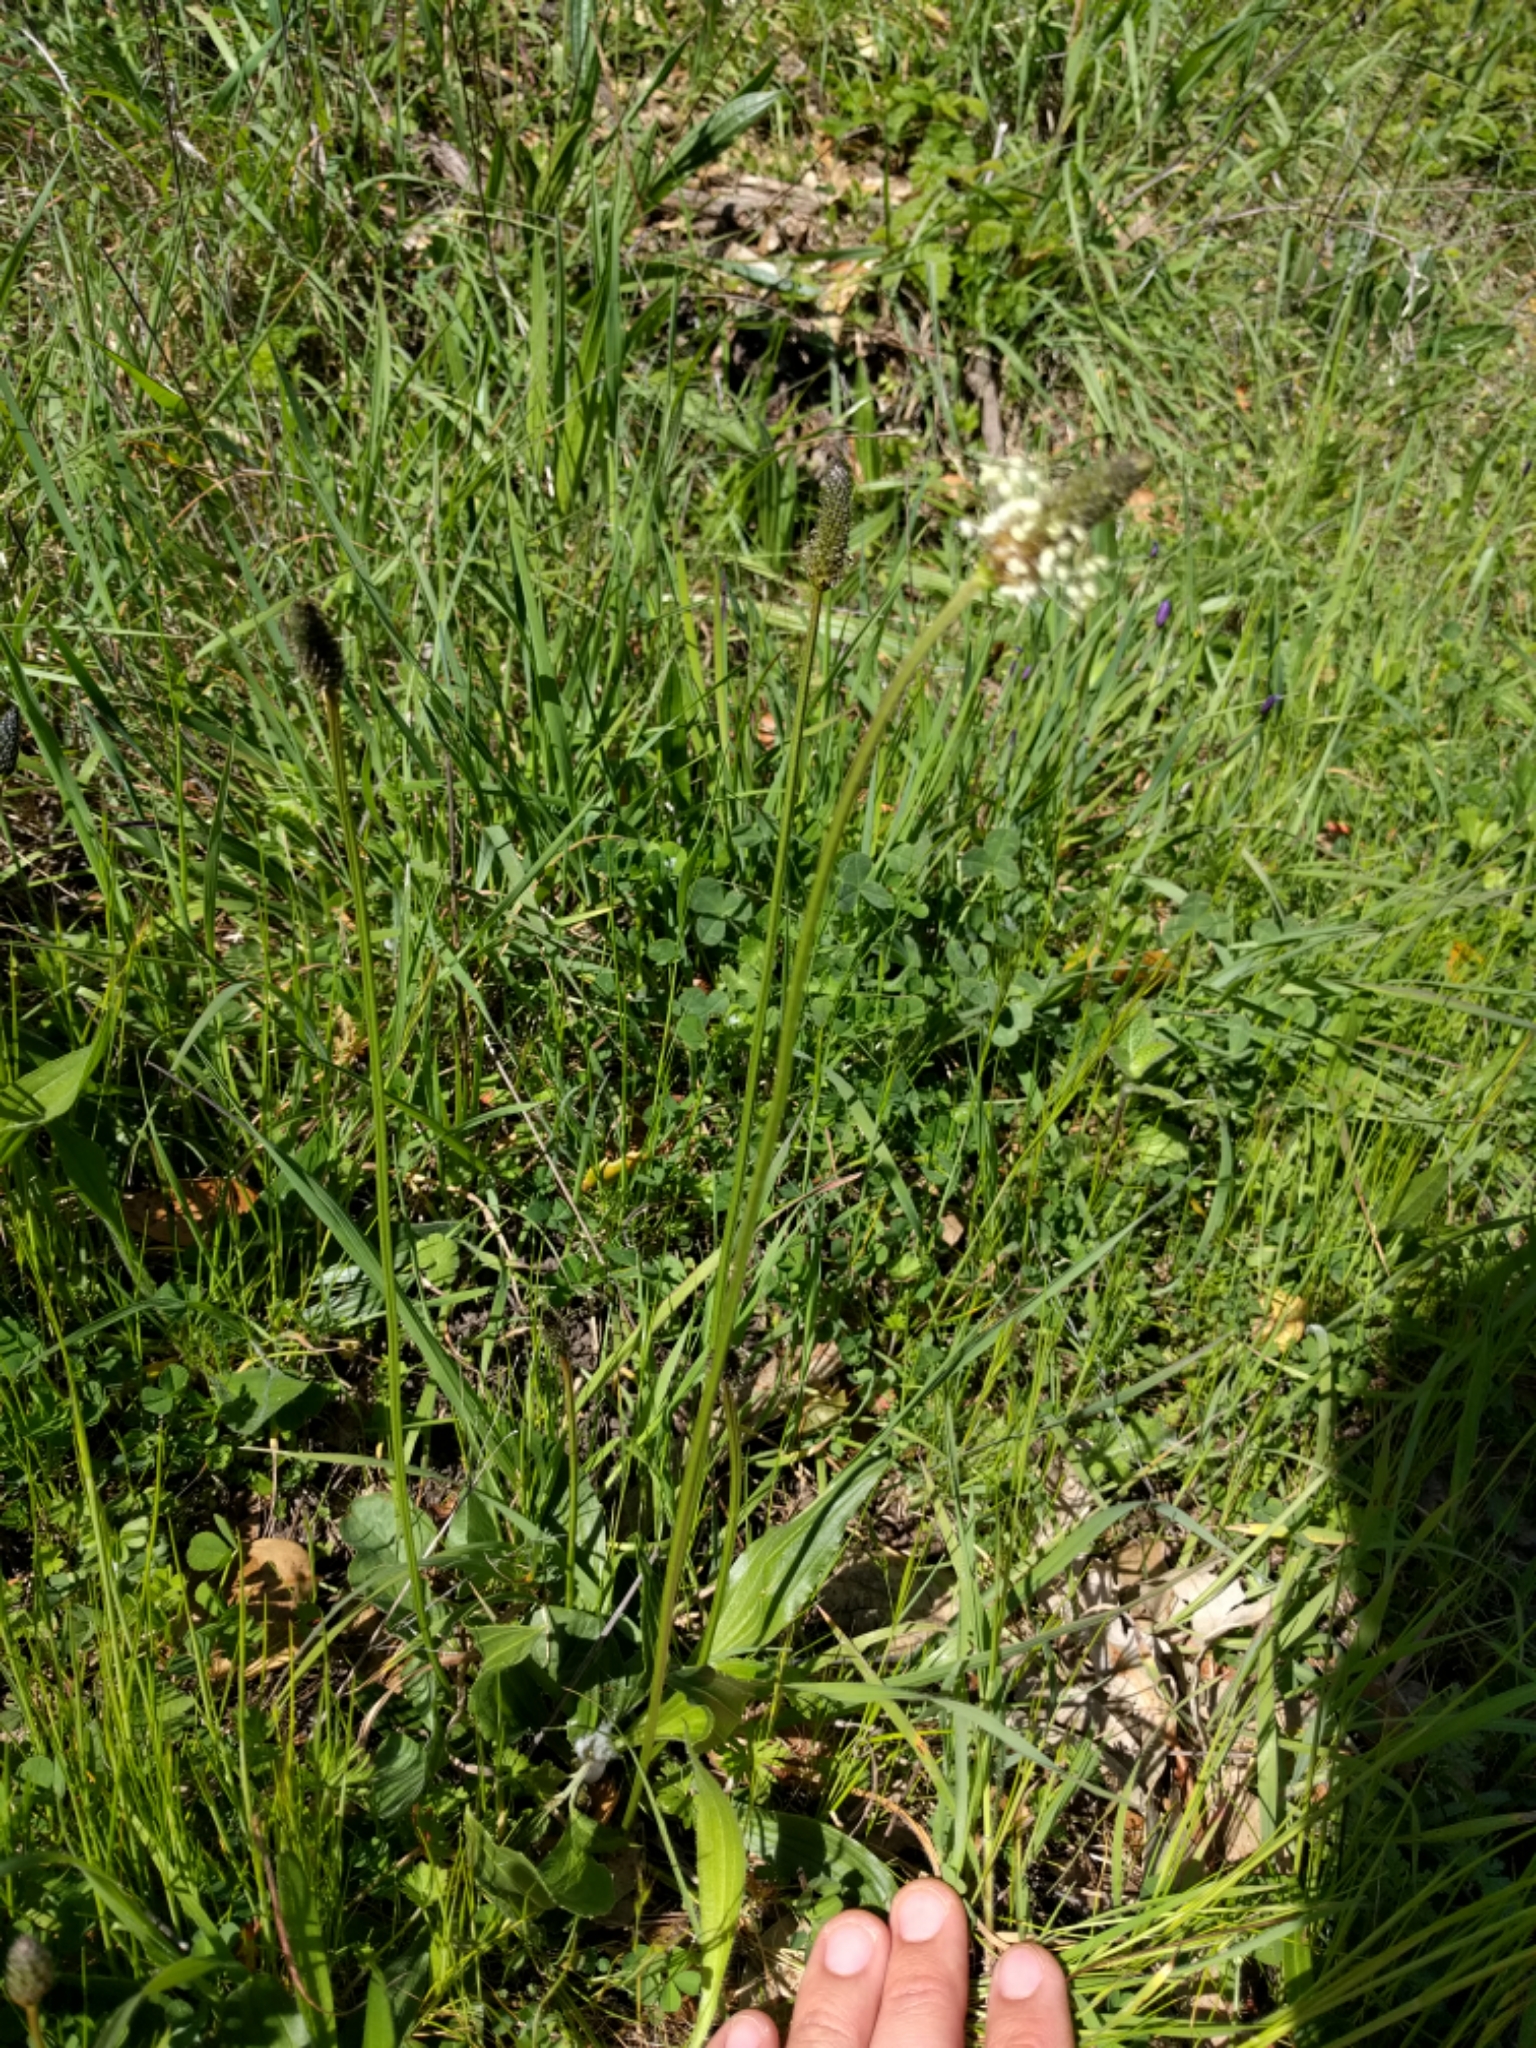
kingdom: Plantae
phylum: Tracheophyta
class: Magnoliopsida
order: Lamiales
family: Plantaginaceae
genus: Plantago
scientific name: Plantago lanceolata
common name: Ribwort plantain
